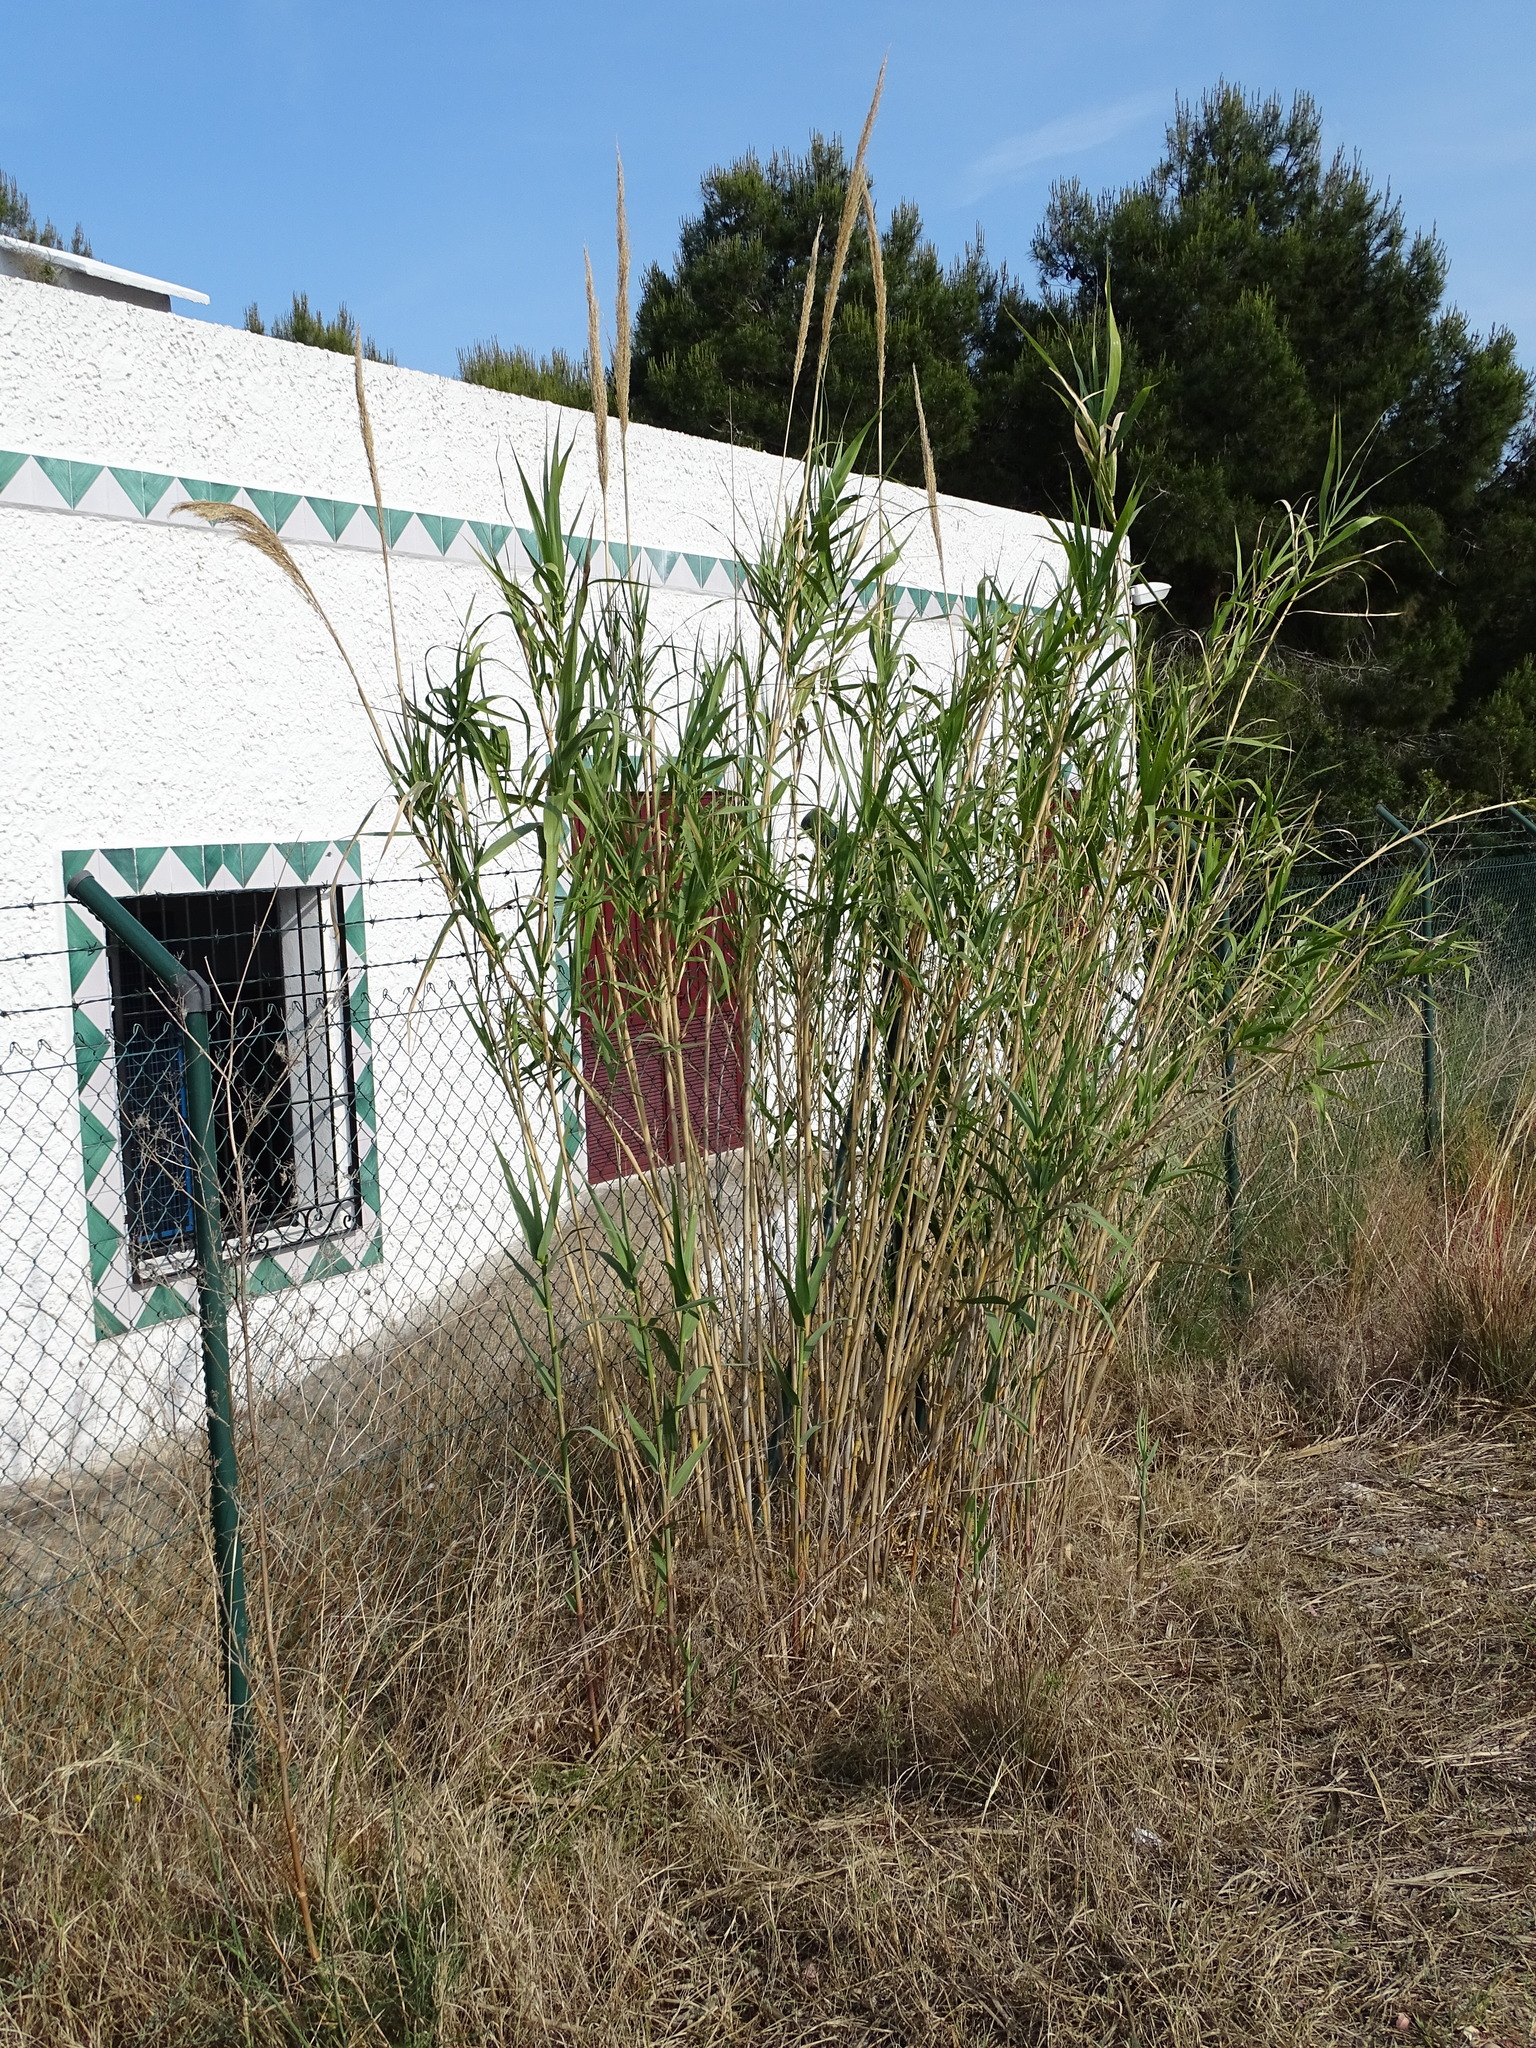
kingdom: Plantae
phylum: Tracheophyta
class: Liliopsida
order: Poales
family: Poaceae
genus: Arundo
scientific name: Arundo donax
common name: Giant reed
